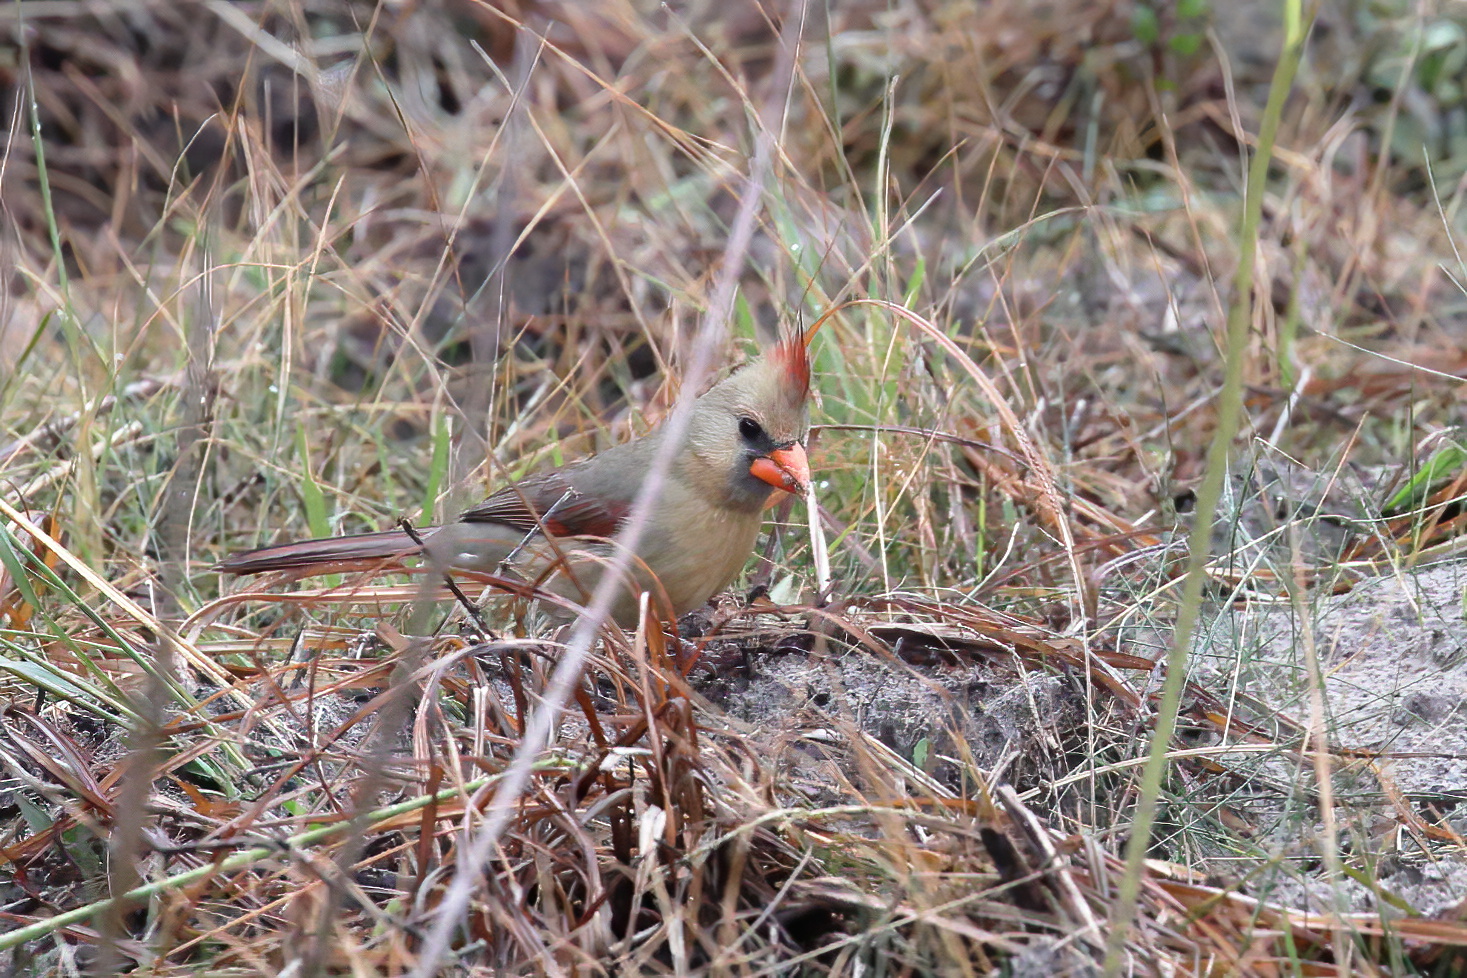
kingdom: Animalia
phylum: Chordata
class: Aves
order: Passeriformes
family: Cardinalidae
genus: Cardinalis
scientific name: Cardinalis cardinalis
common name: Northern cardinal
